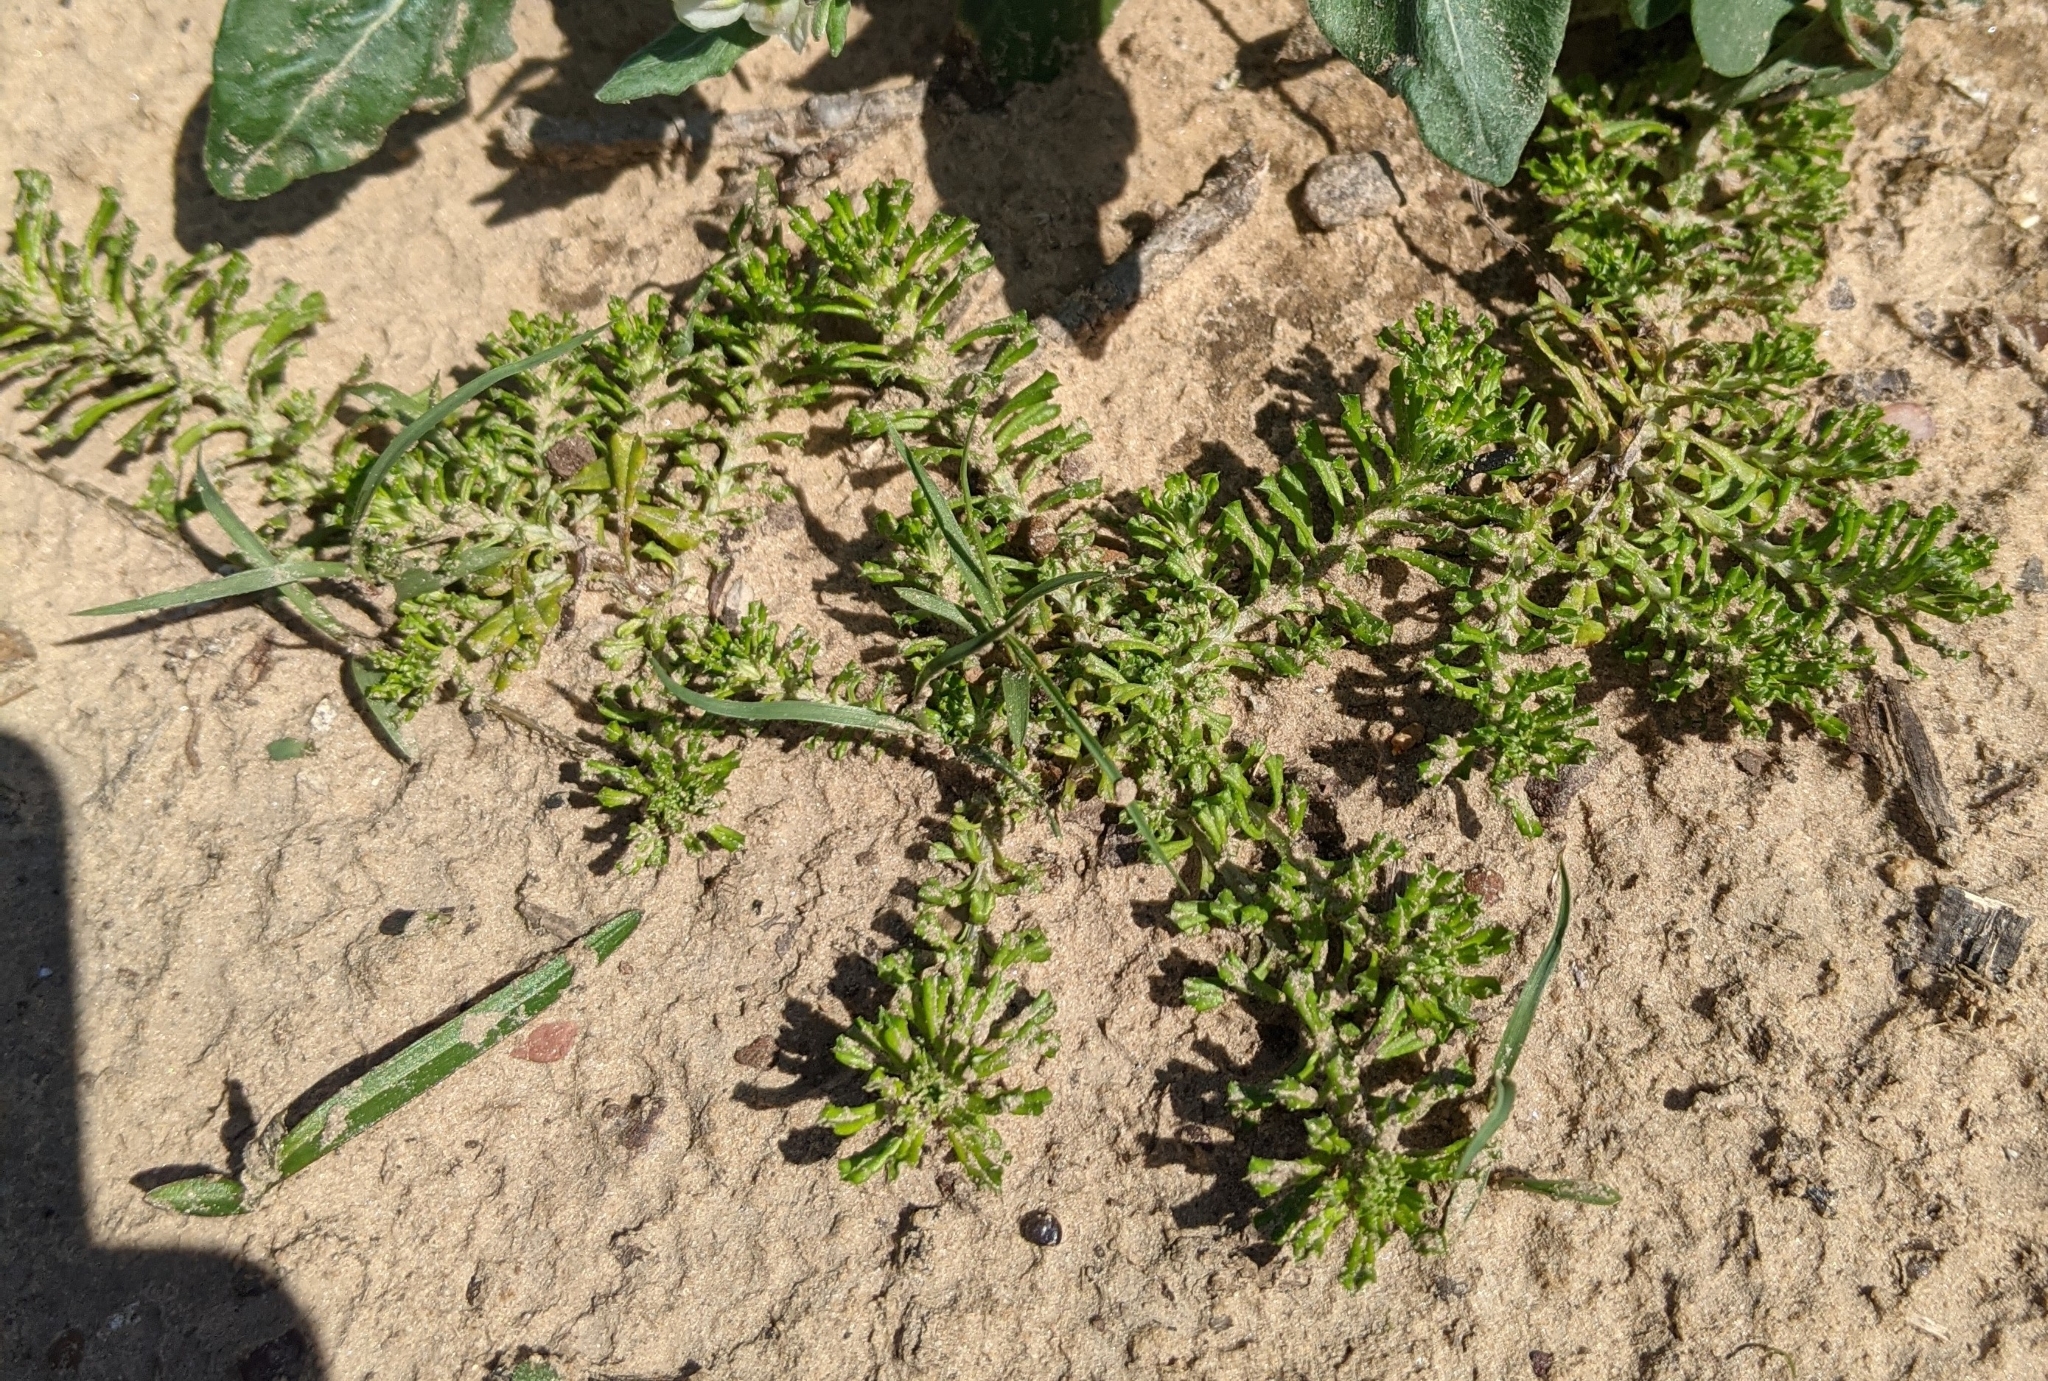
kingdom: Plantae
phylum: Tracheophyta
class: Magnoliopsida
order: Asterales
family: Asteraceae
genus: Facelis
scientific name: Facelis retusa
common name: Annual trampweed
